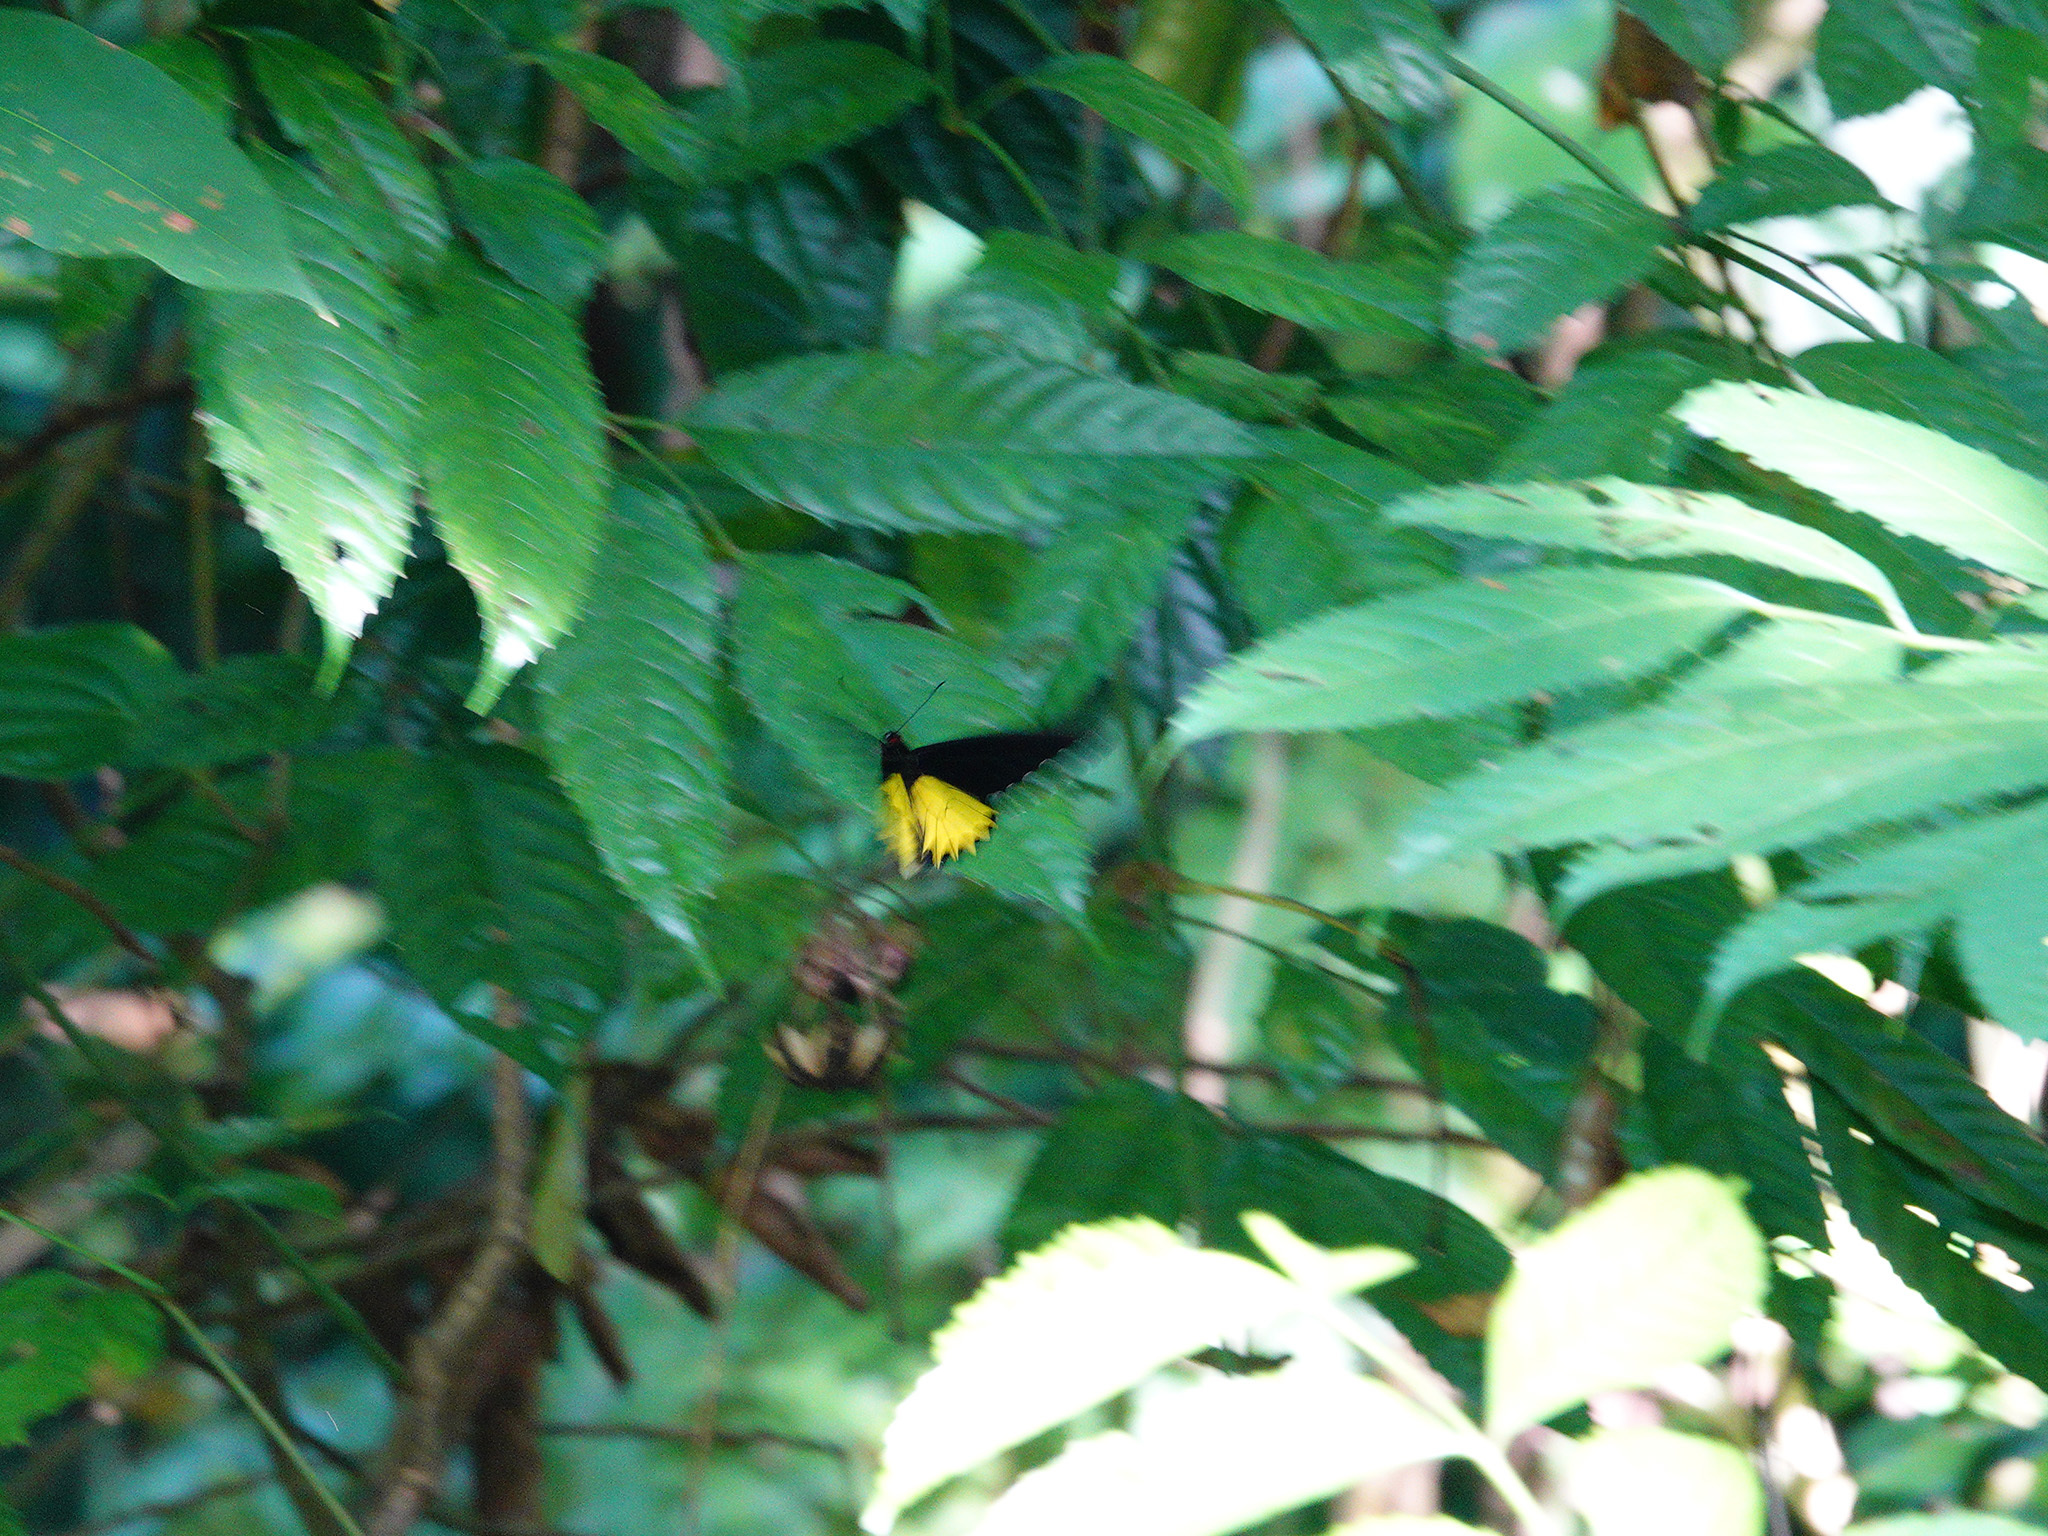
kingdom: Animalia
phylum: Arthropoda
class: Insecta
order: Lepidoptera
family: Papilionidae
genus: Troides
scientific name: Troides helena
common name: Common birdwing
